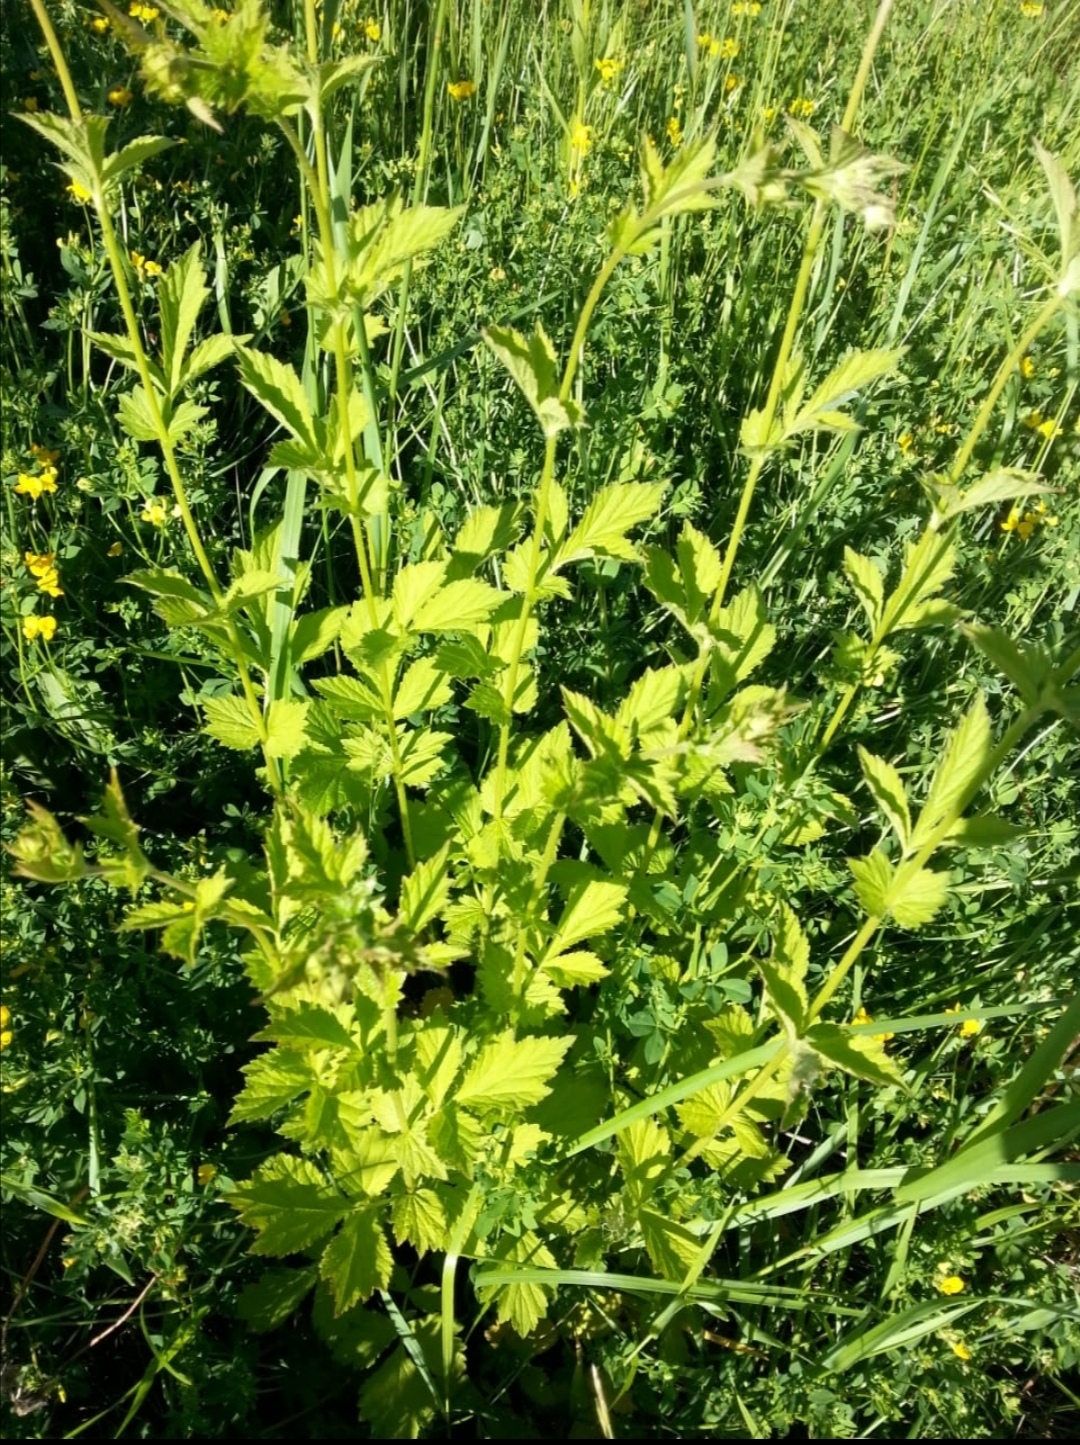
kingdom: Plantae
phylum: Tracheophyta
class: Magnoliopsida
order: Rosales
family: Rosaceae
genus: Geum
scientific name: Geum urbanum
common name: Wood avens
